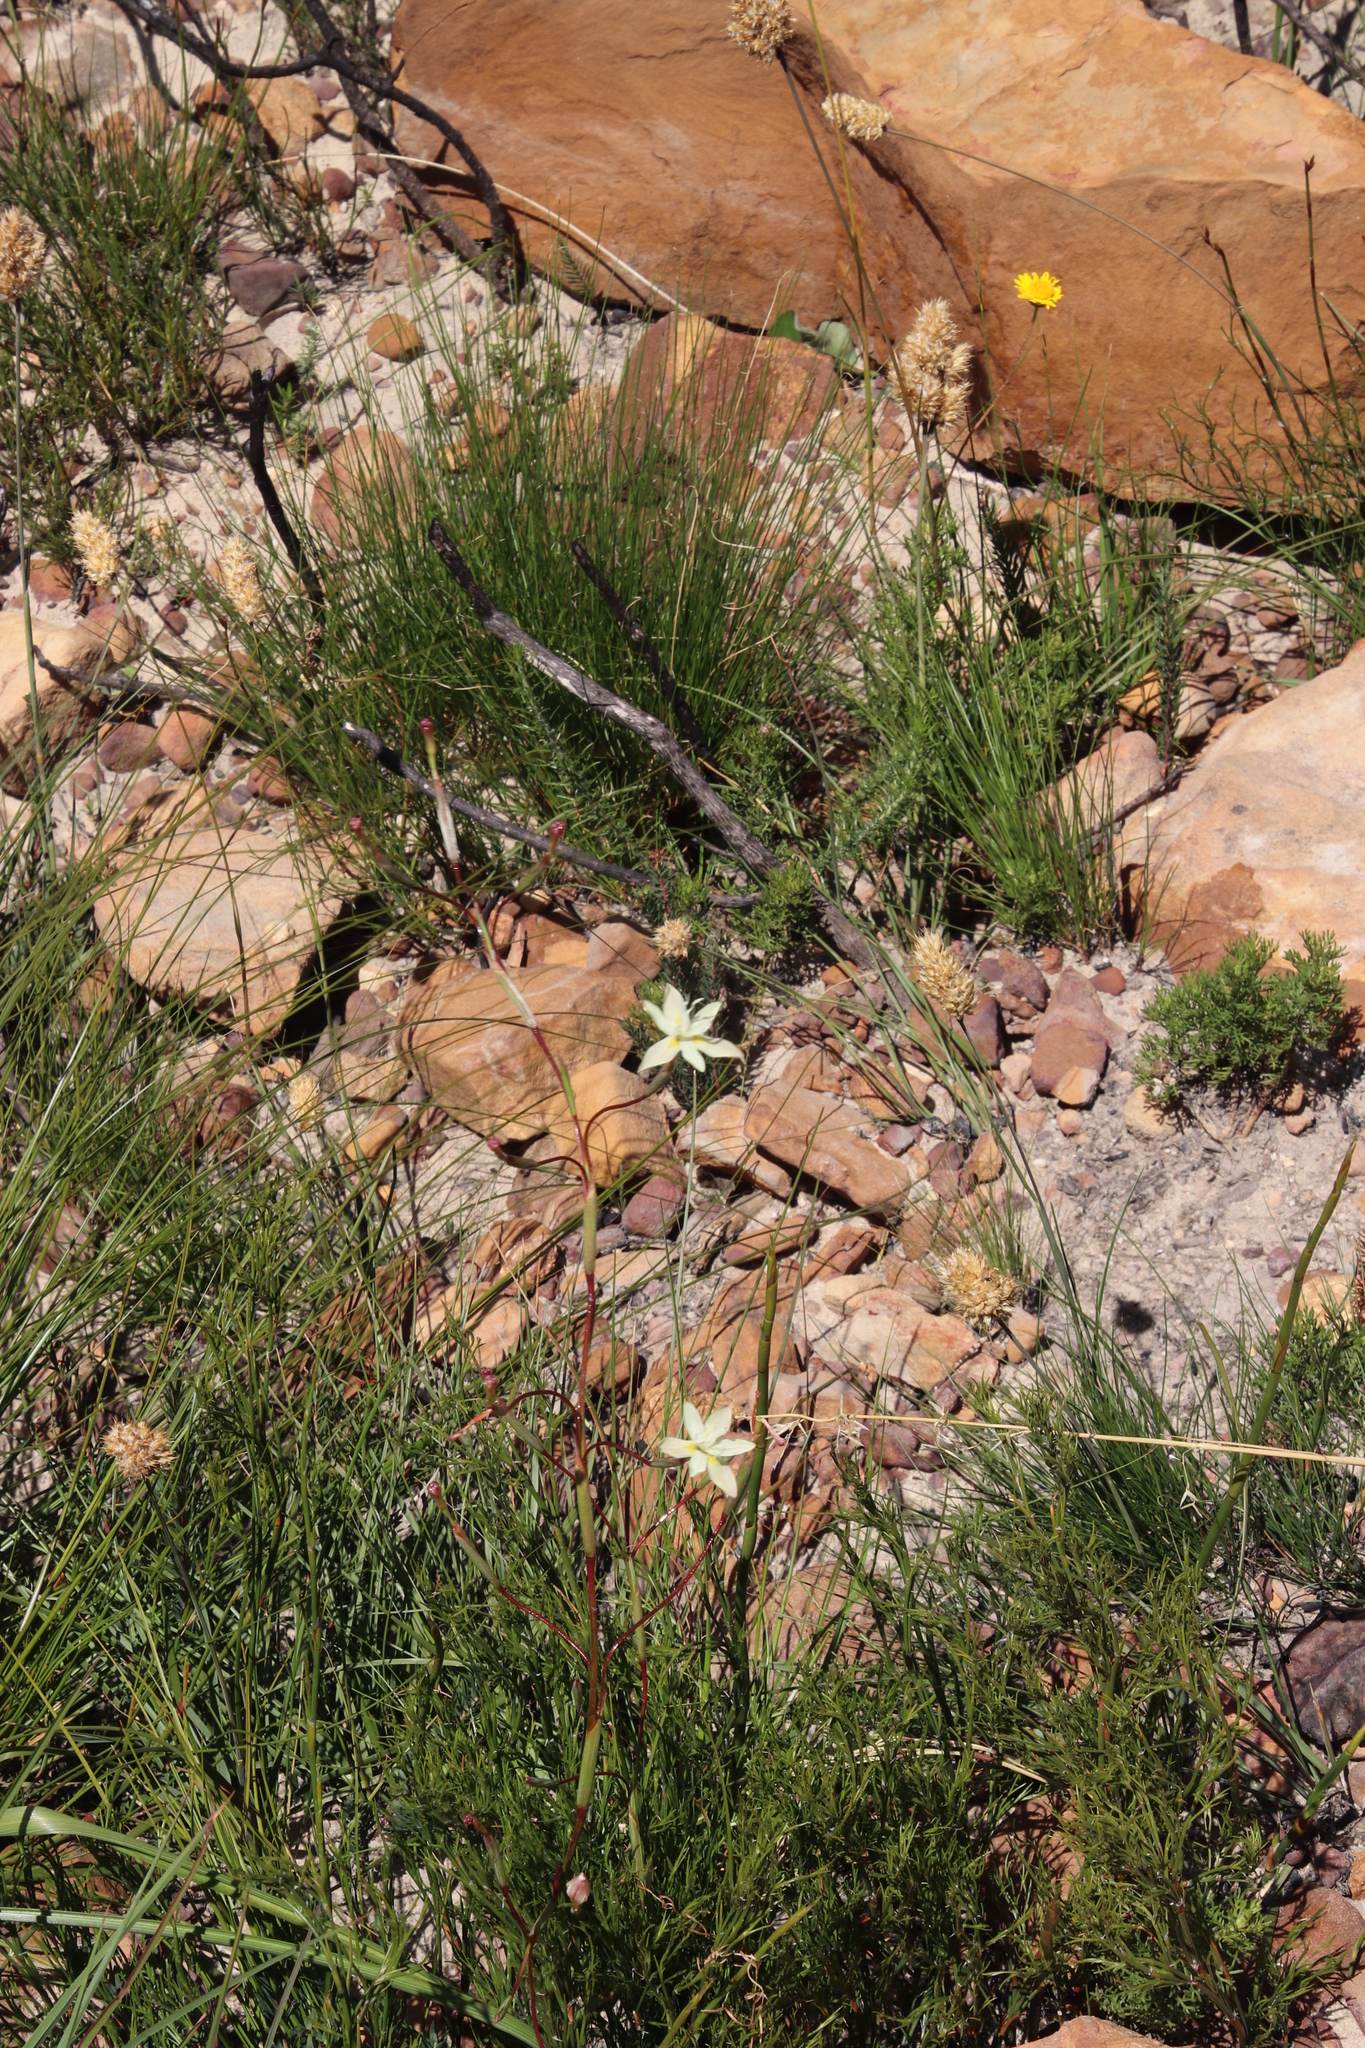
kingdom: Plantae
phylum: Tracheophyta
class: Liliopsida
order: Asparagales
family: Iridaceae
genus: Moraea
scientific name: Moraea viscaria
